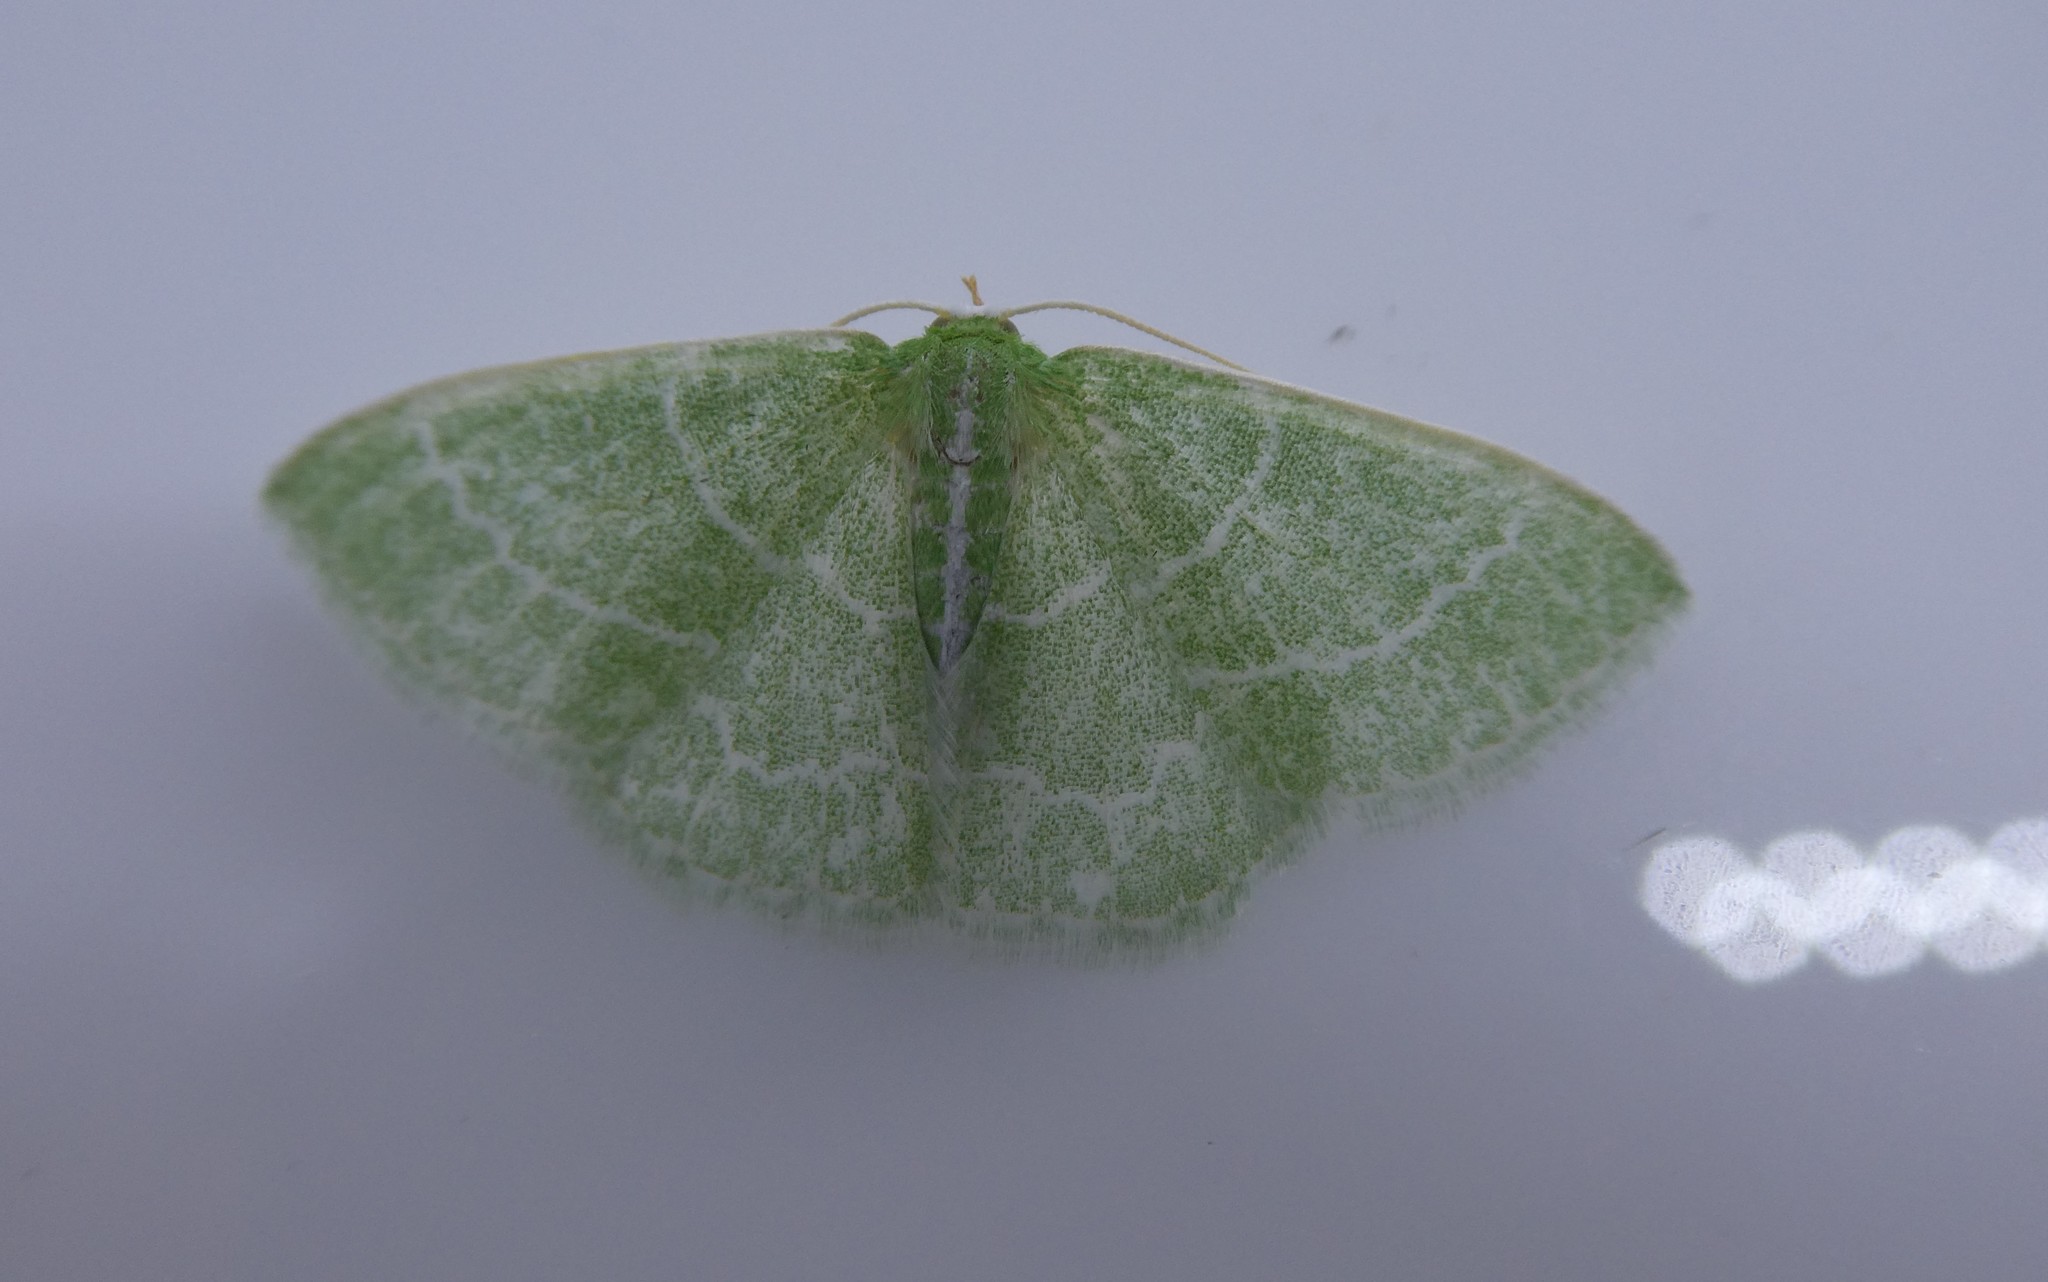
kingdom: Animalia
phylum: Arthropoda
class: Insecta
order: Lepidoptera
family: Geometridae
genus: Synchlora
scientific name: Synchlora aerata
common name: Wavy-lined emerald
